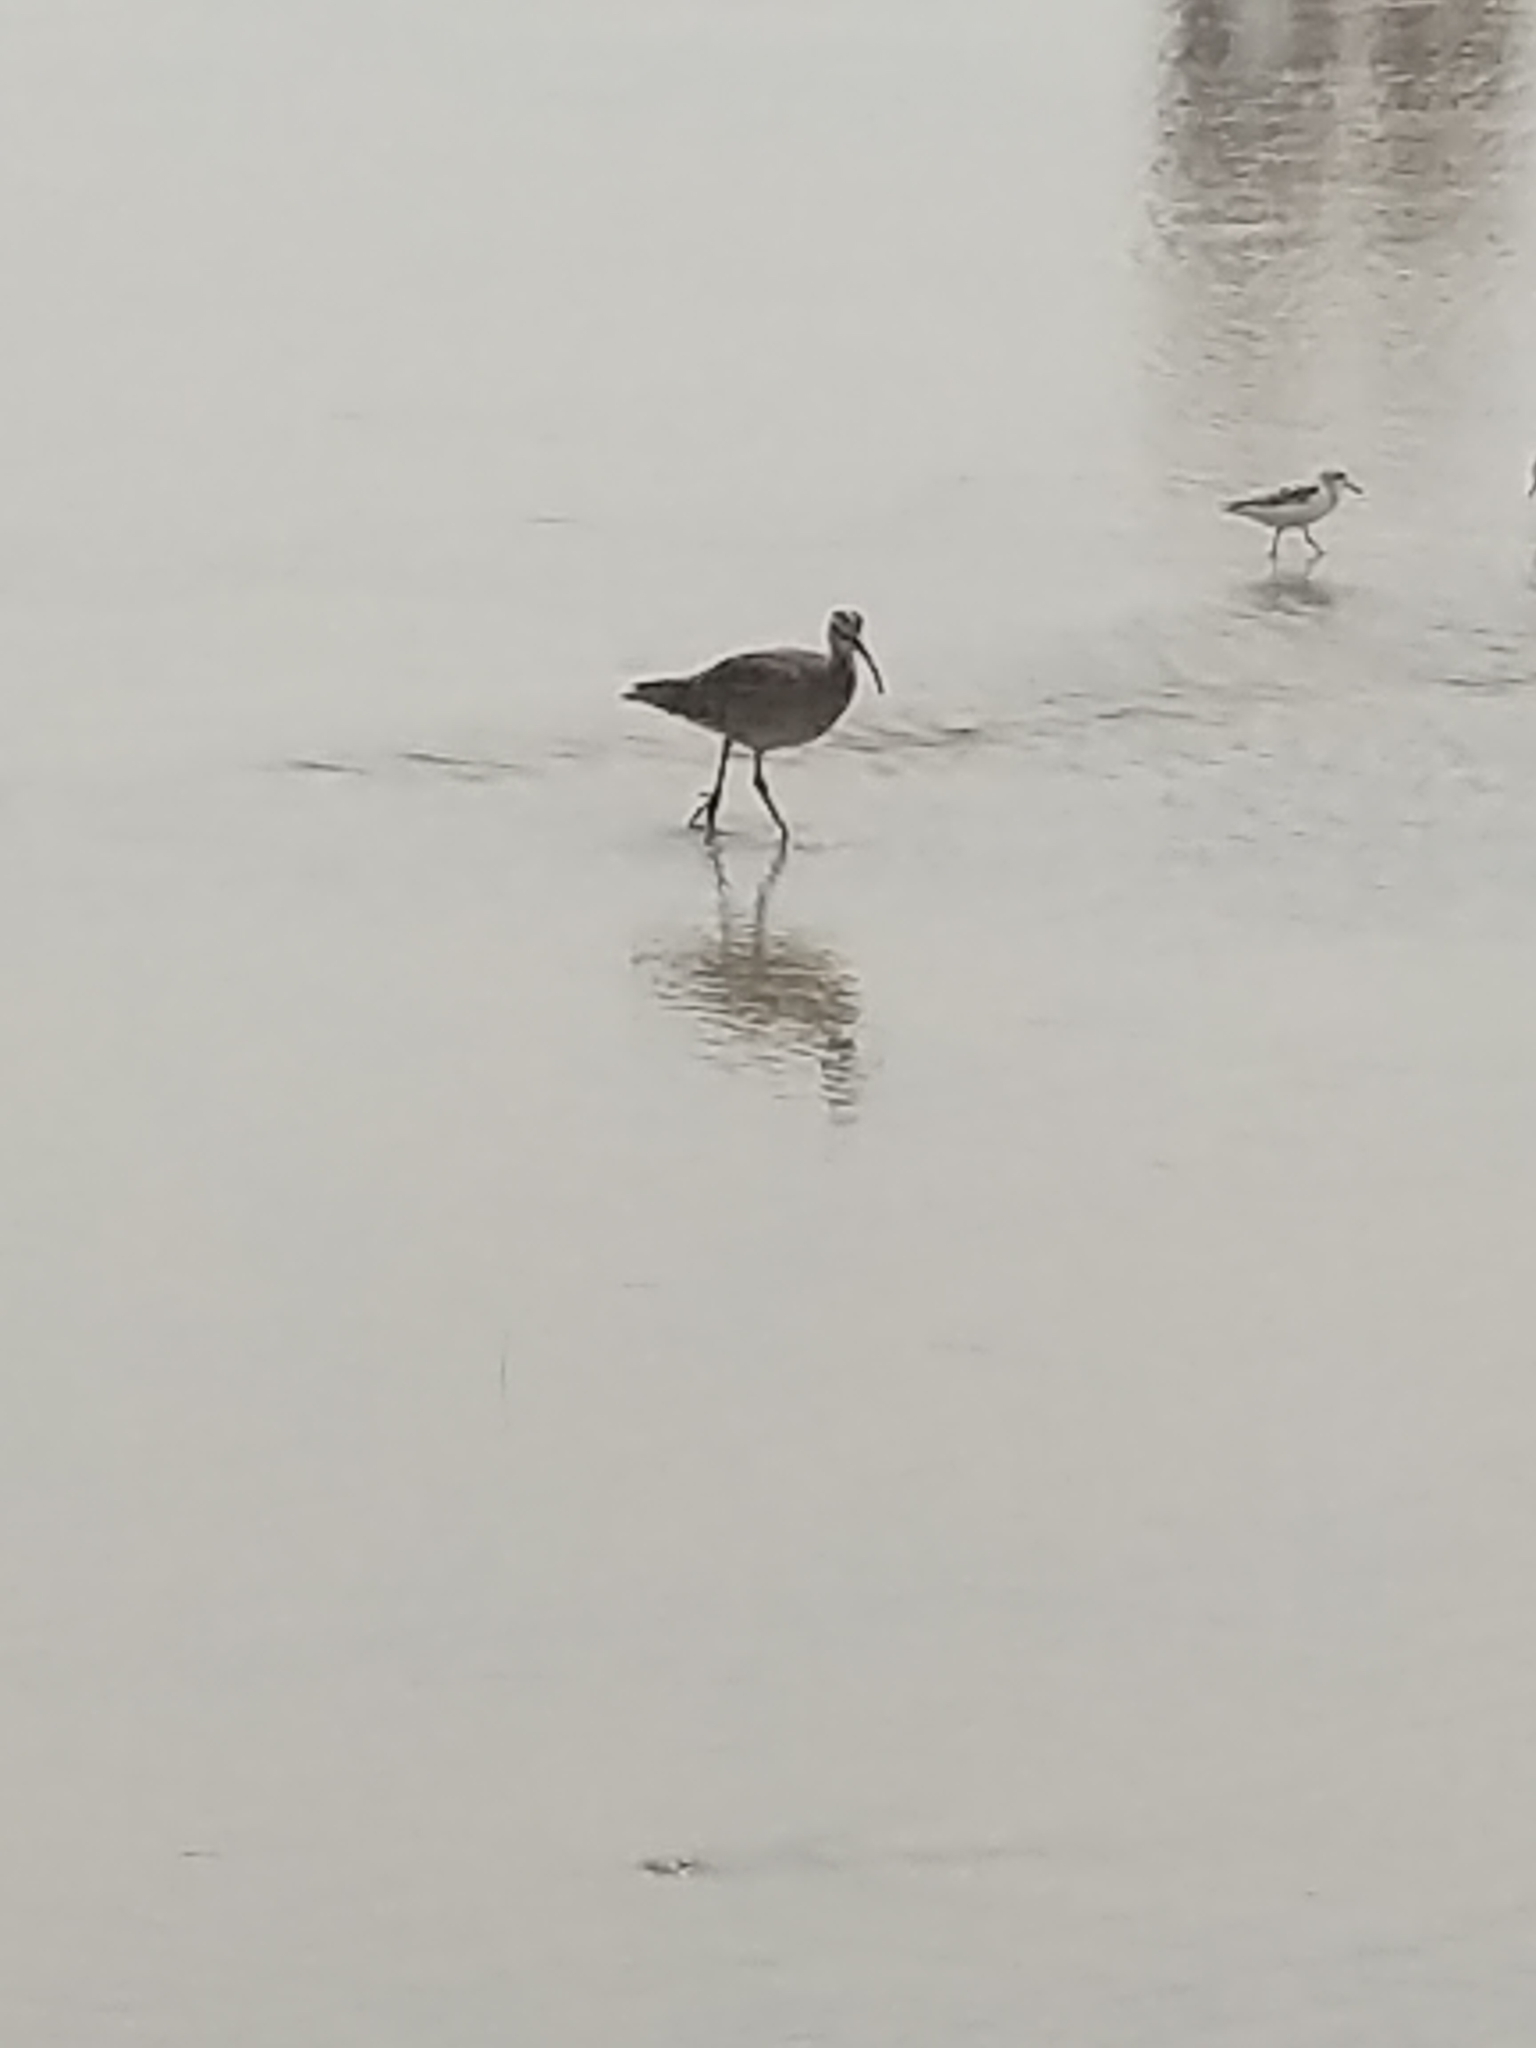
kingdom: Animalia
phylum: Chordata
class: Aves
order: Charadriiformes
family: Scolopacidae
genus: Numenius
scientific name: Numenius phaeopus
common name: Whimbrel
